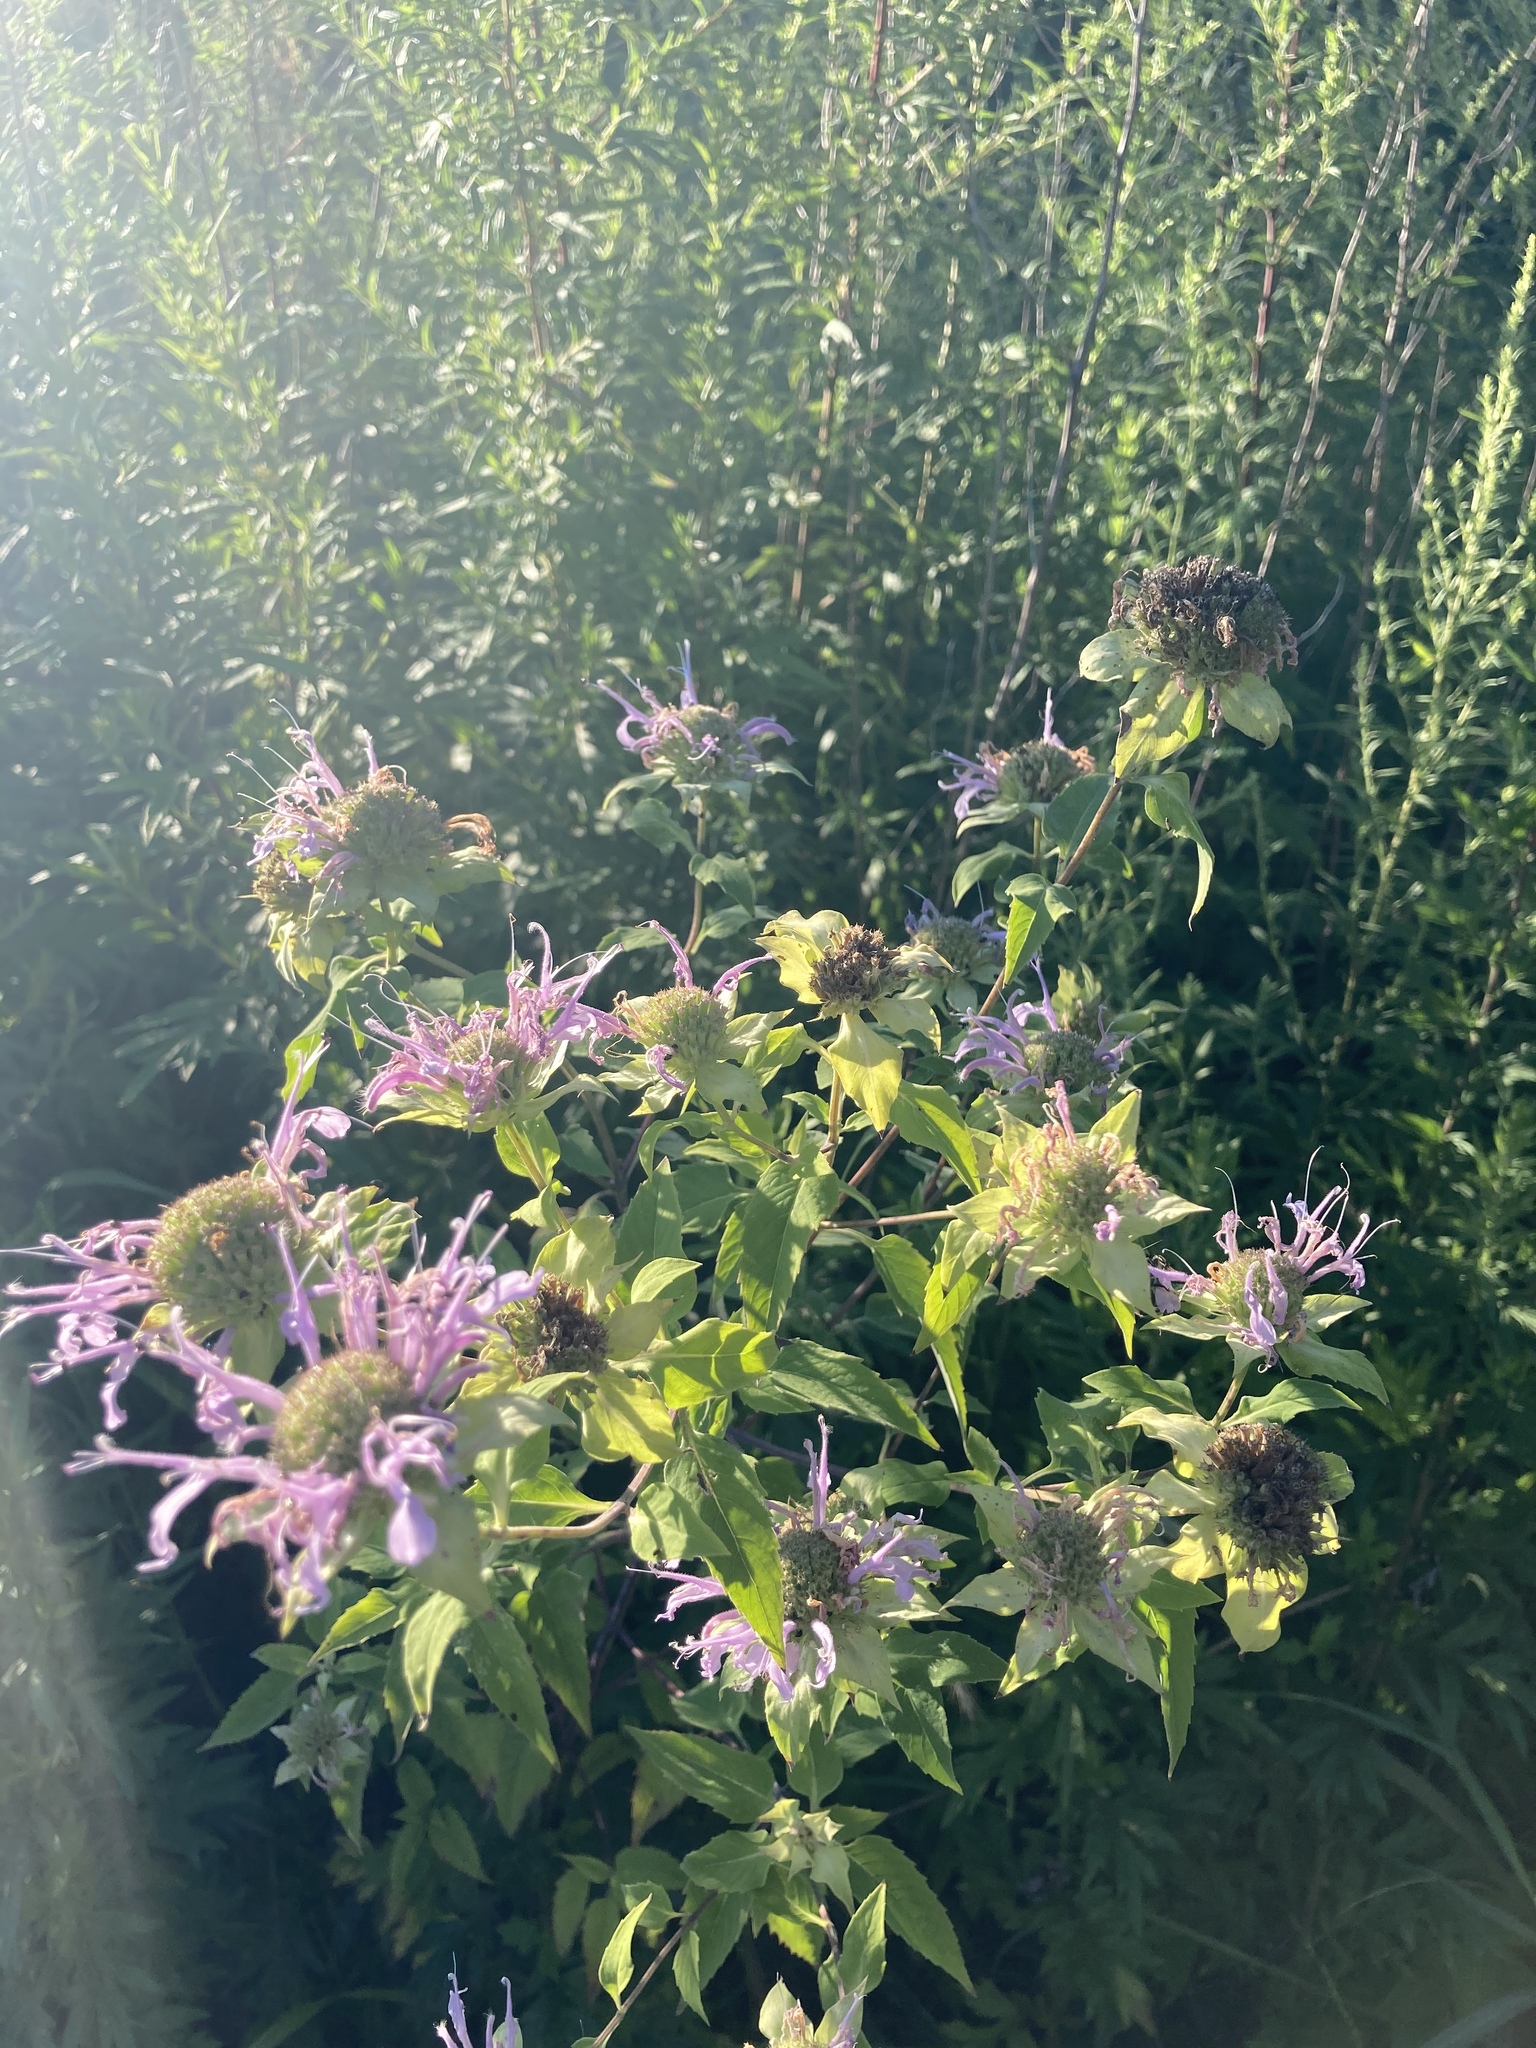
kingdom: Plantae
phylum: Tracheophyta
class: Magnoliopsida
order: Lamiales
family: Lamiaceae
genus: Monarda
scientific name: Monarda fistulosa
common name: Purple beebalm
